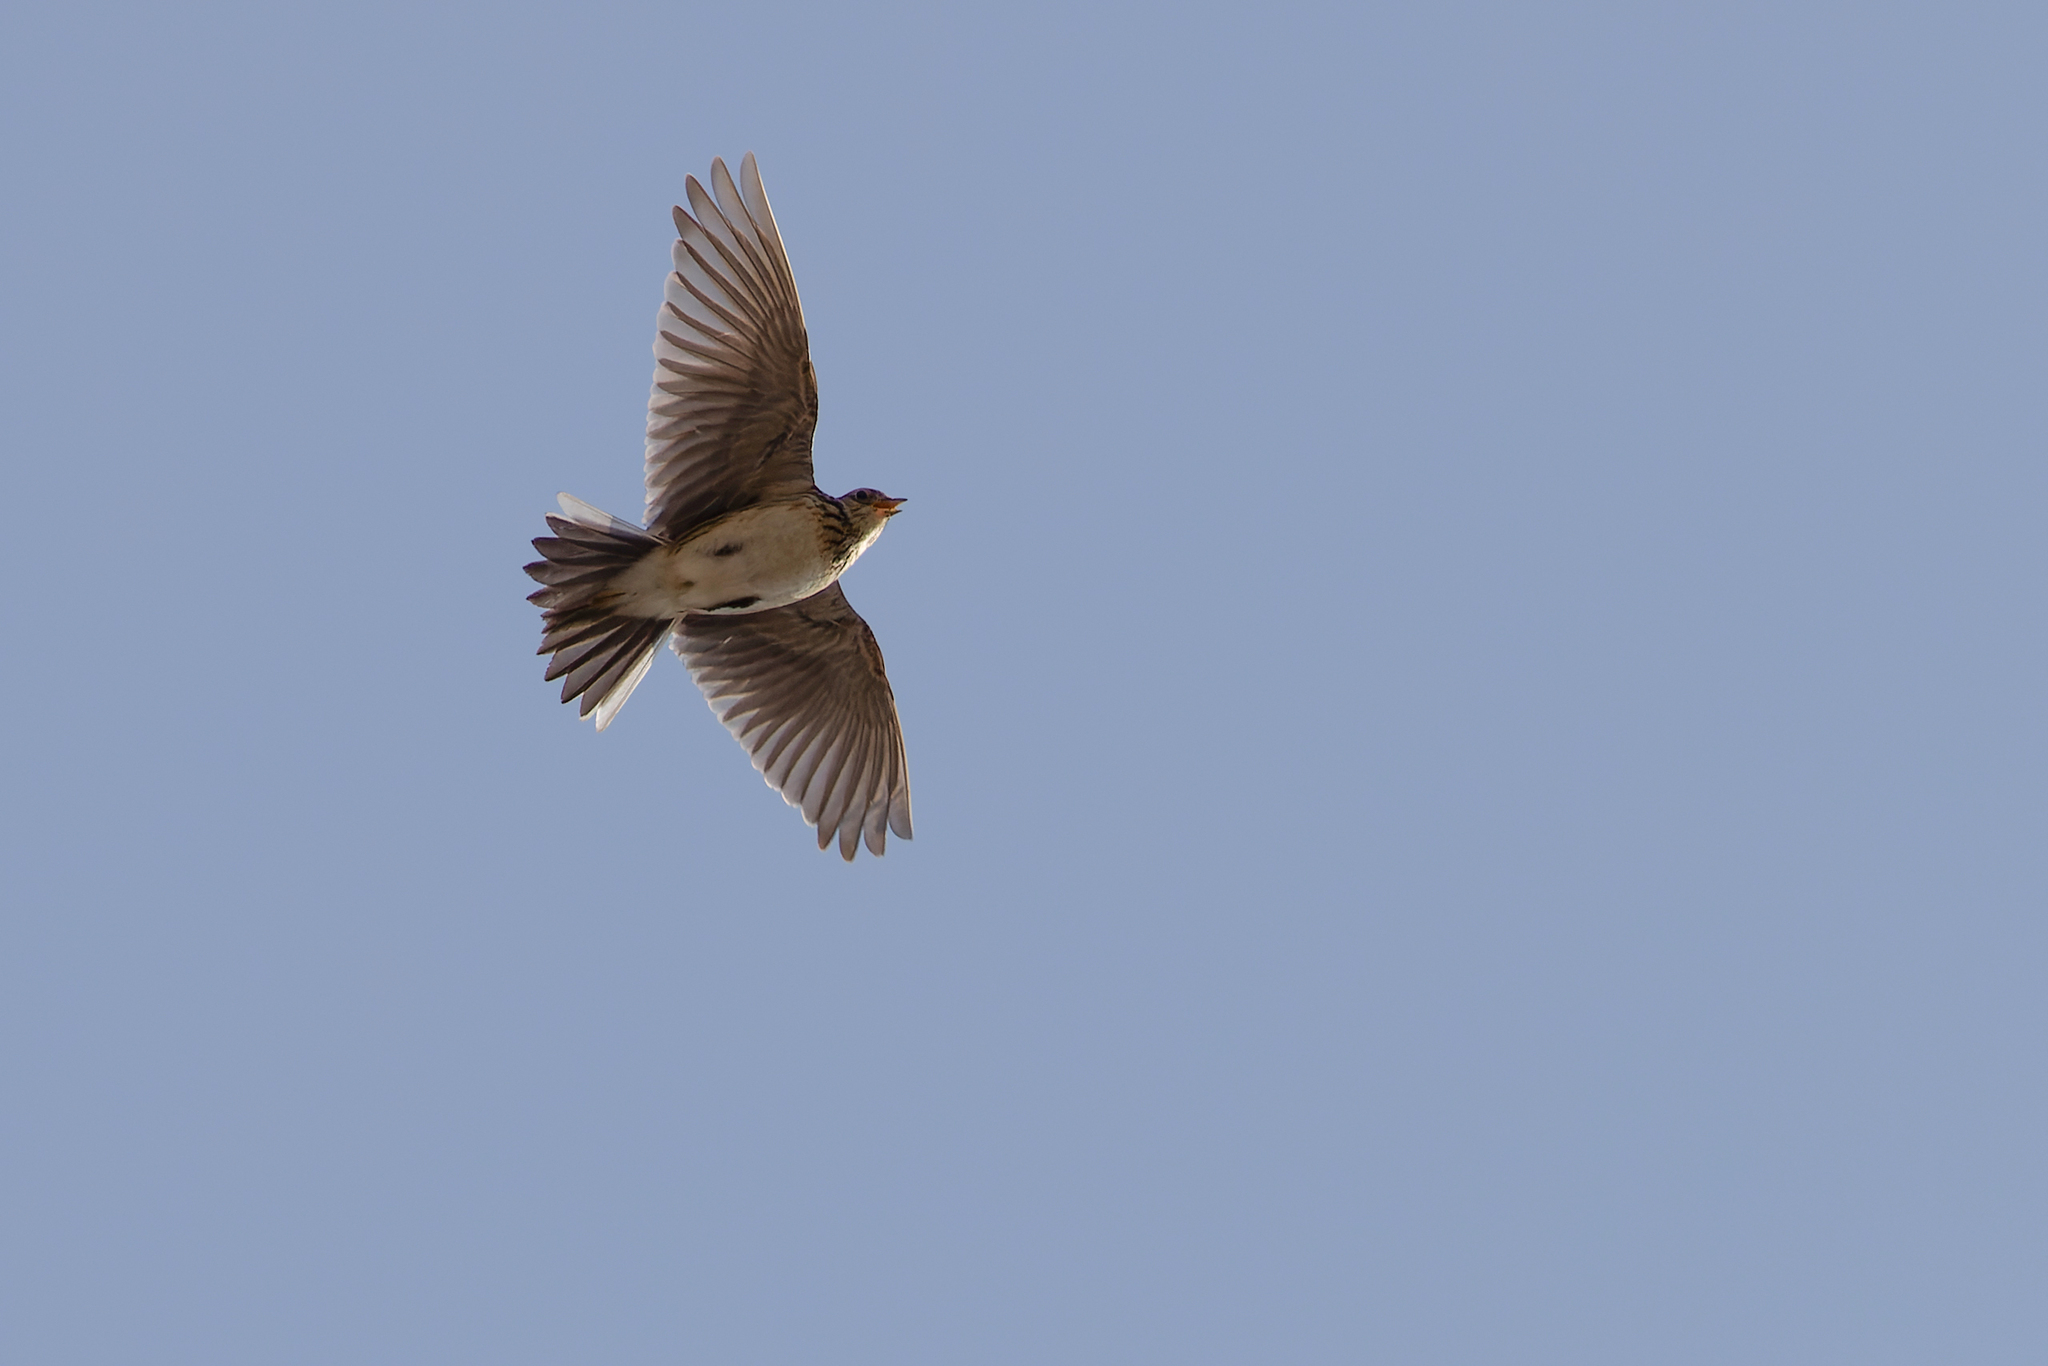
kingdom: Animalia
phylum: Chordata
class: Aves
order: Passeriformes
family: Alaudidae
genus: Alauda
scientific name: Alauda arvensis
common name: Eurasian skylark
